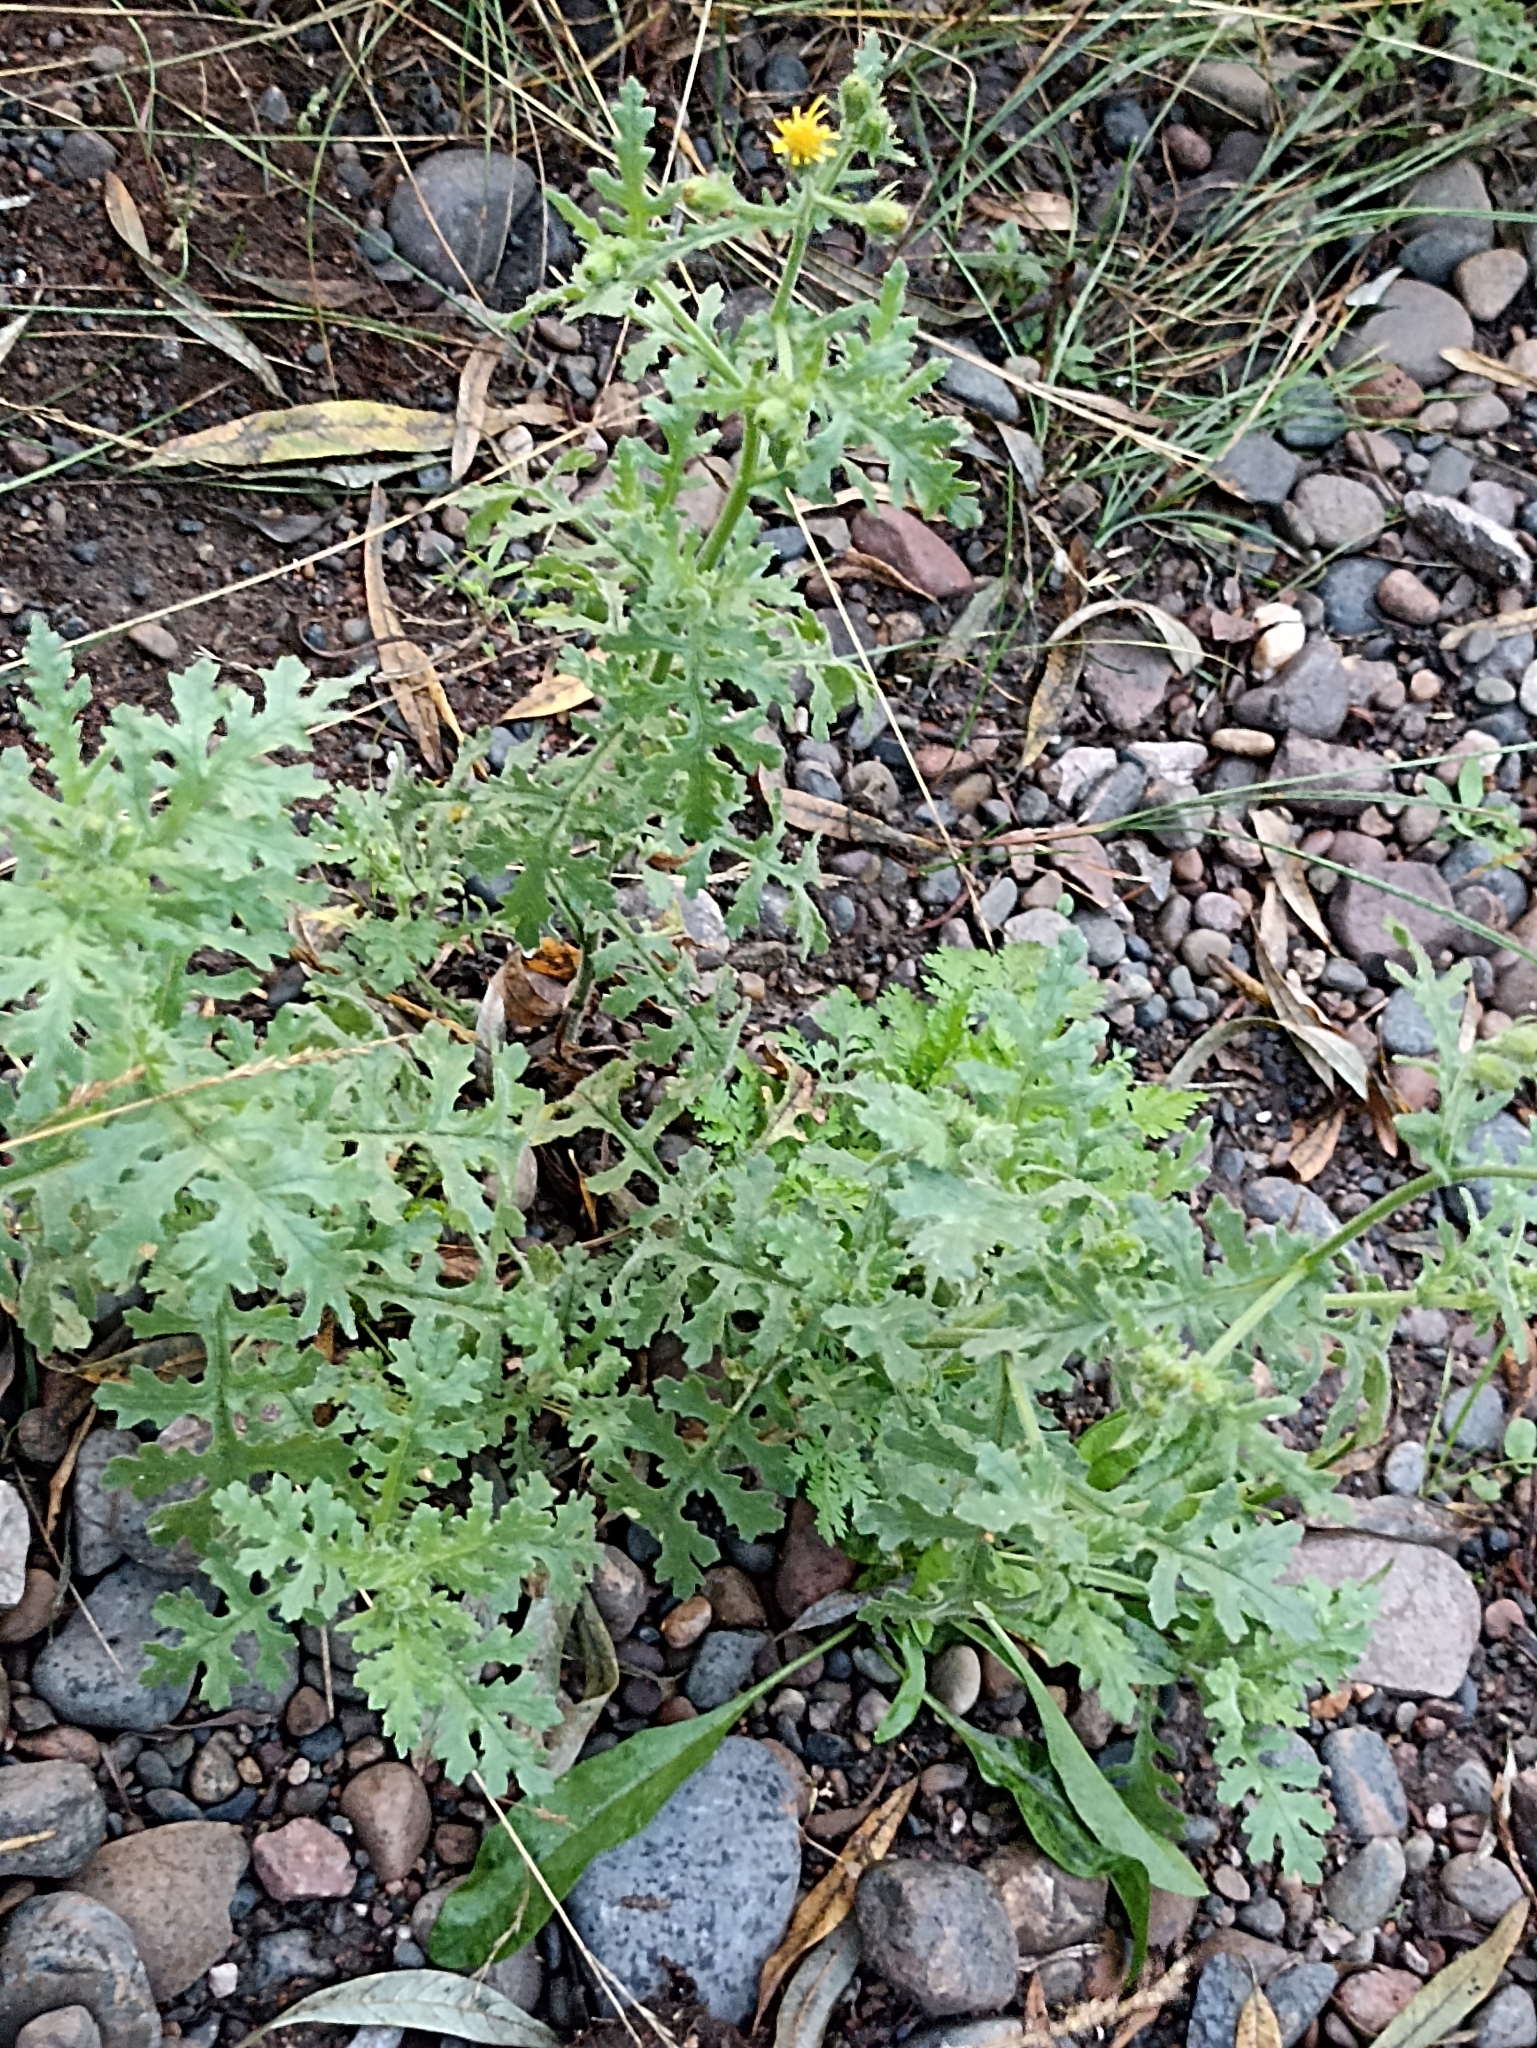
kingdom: Plantae
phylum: Tracheophyta
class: Magnoliopsida
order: Asterales
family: Asteraceae
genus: Senecio
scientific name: Senecio viscosus
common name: Sticky groundsel
